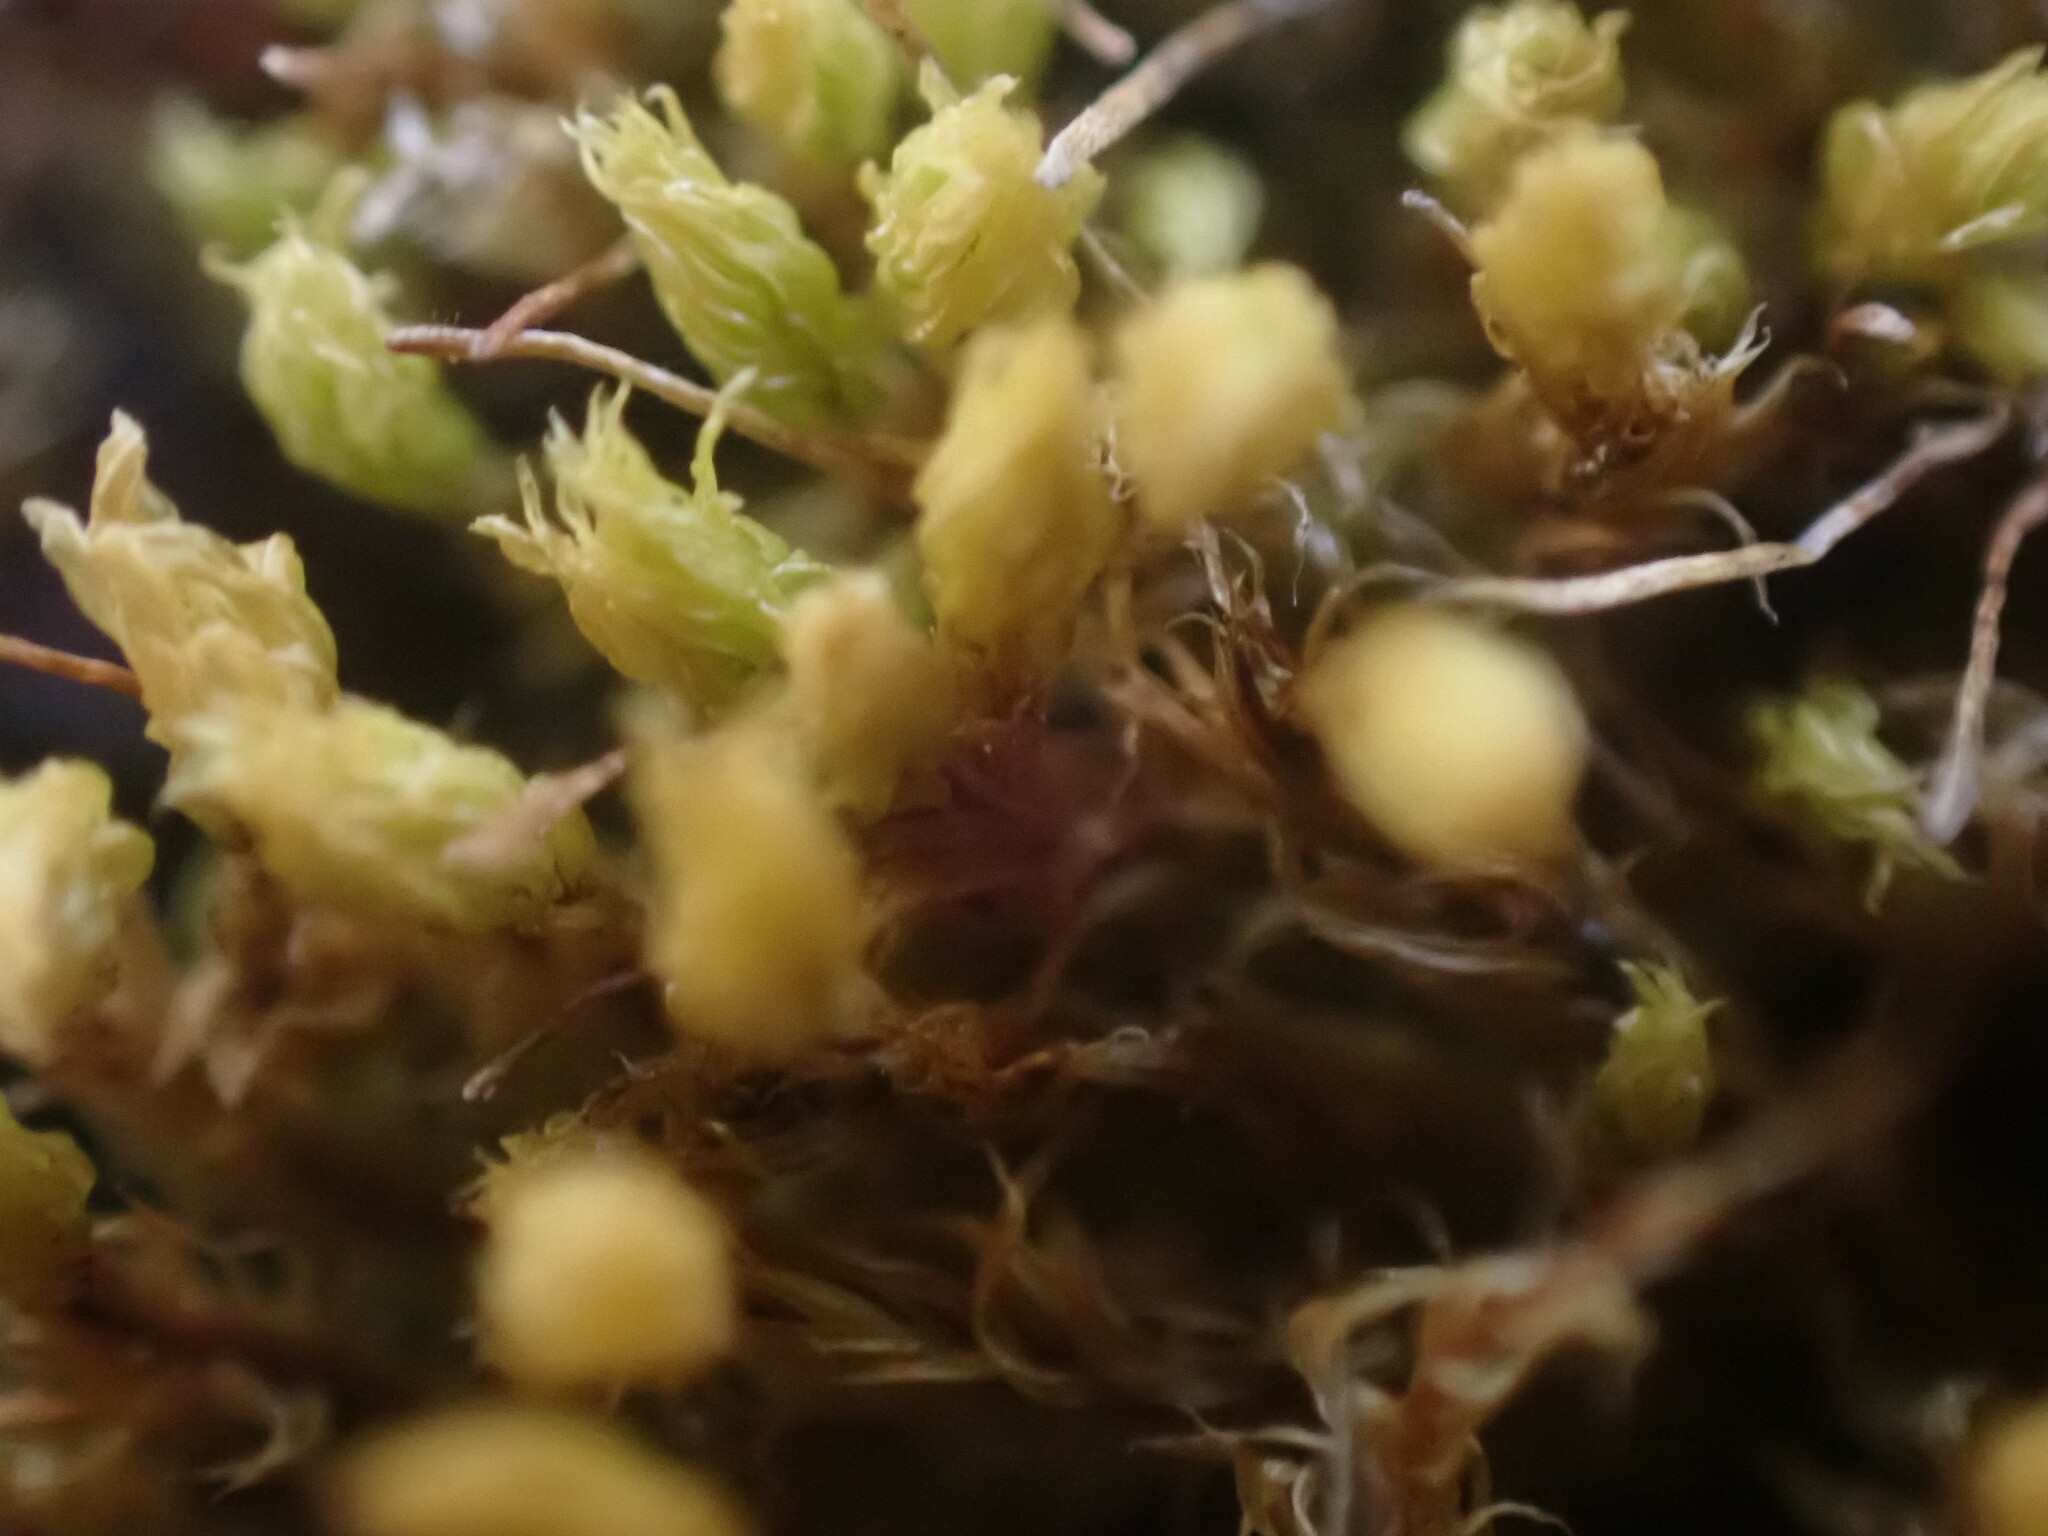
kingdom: Plantae
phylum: Bryophyta
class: Bryopsida
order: Aulacomniales
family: Aulacomniaceae
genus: Aulacomnium
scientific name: Aulacomnium palustre
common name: Bog groove-moss
